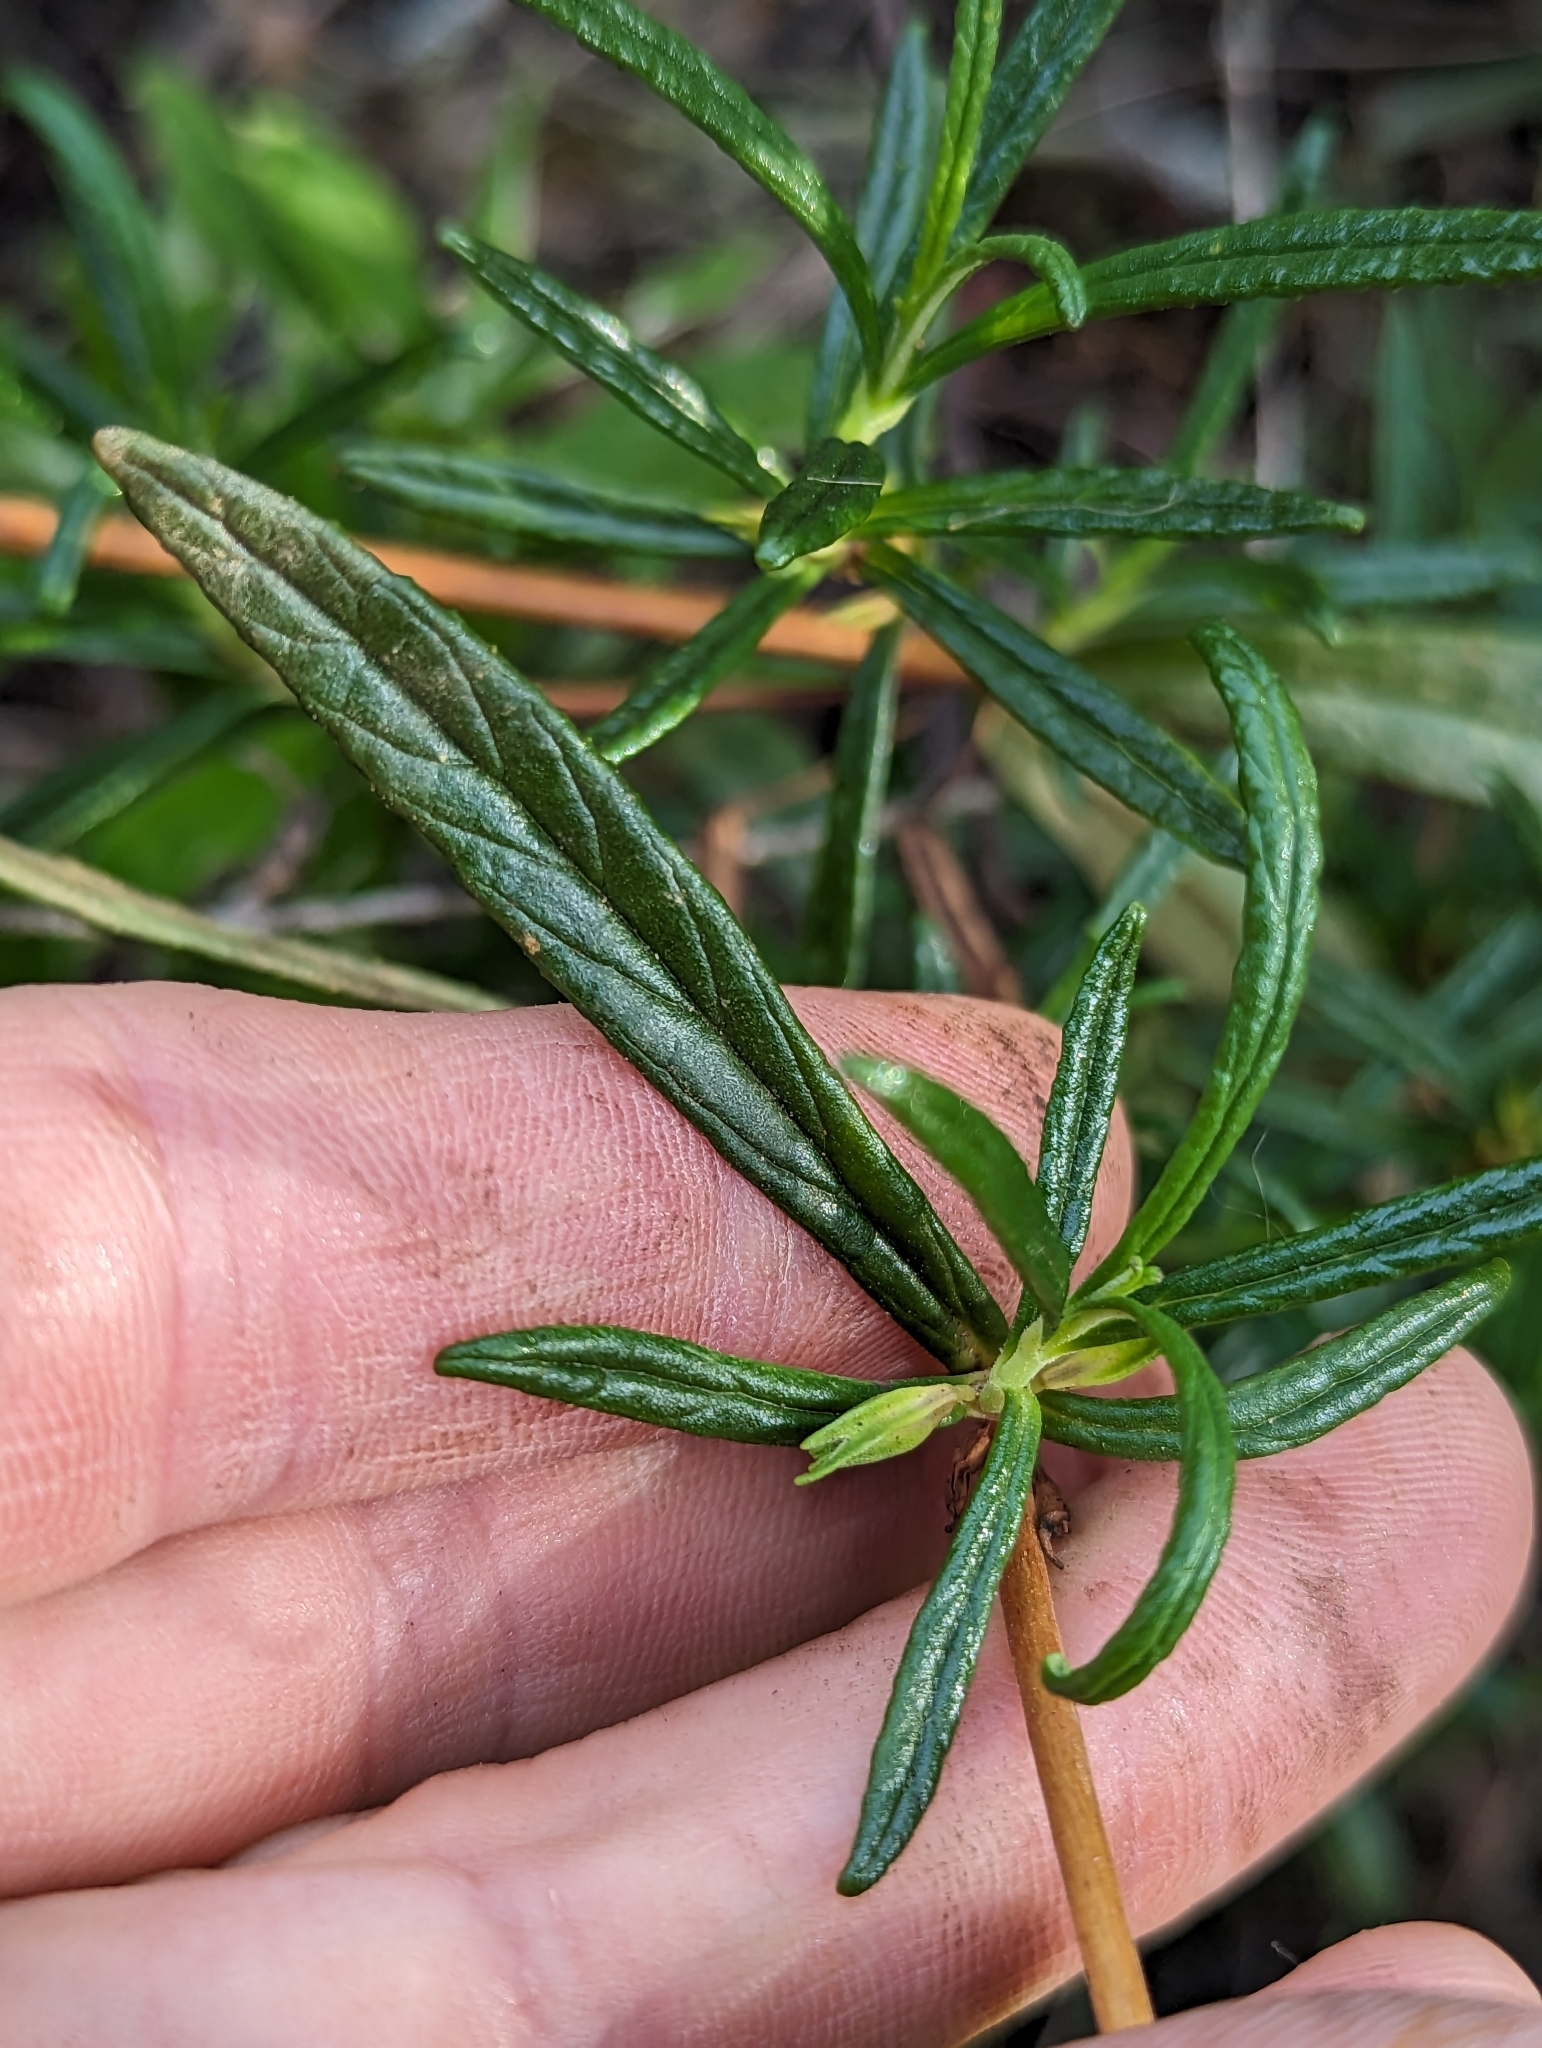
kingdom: Plantae
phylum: Tracheophyta
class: Magnoliopsida
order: Lamiales
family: Phrymaceae
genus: Diplacus
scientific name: Diplacus puniceus
